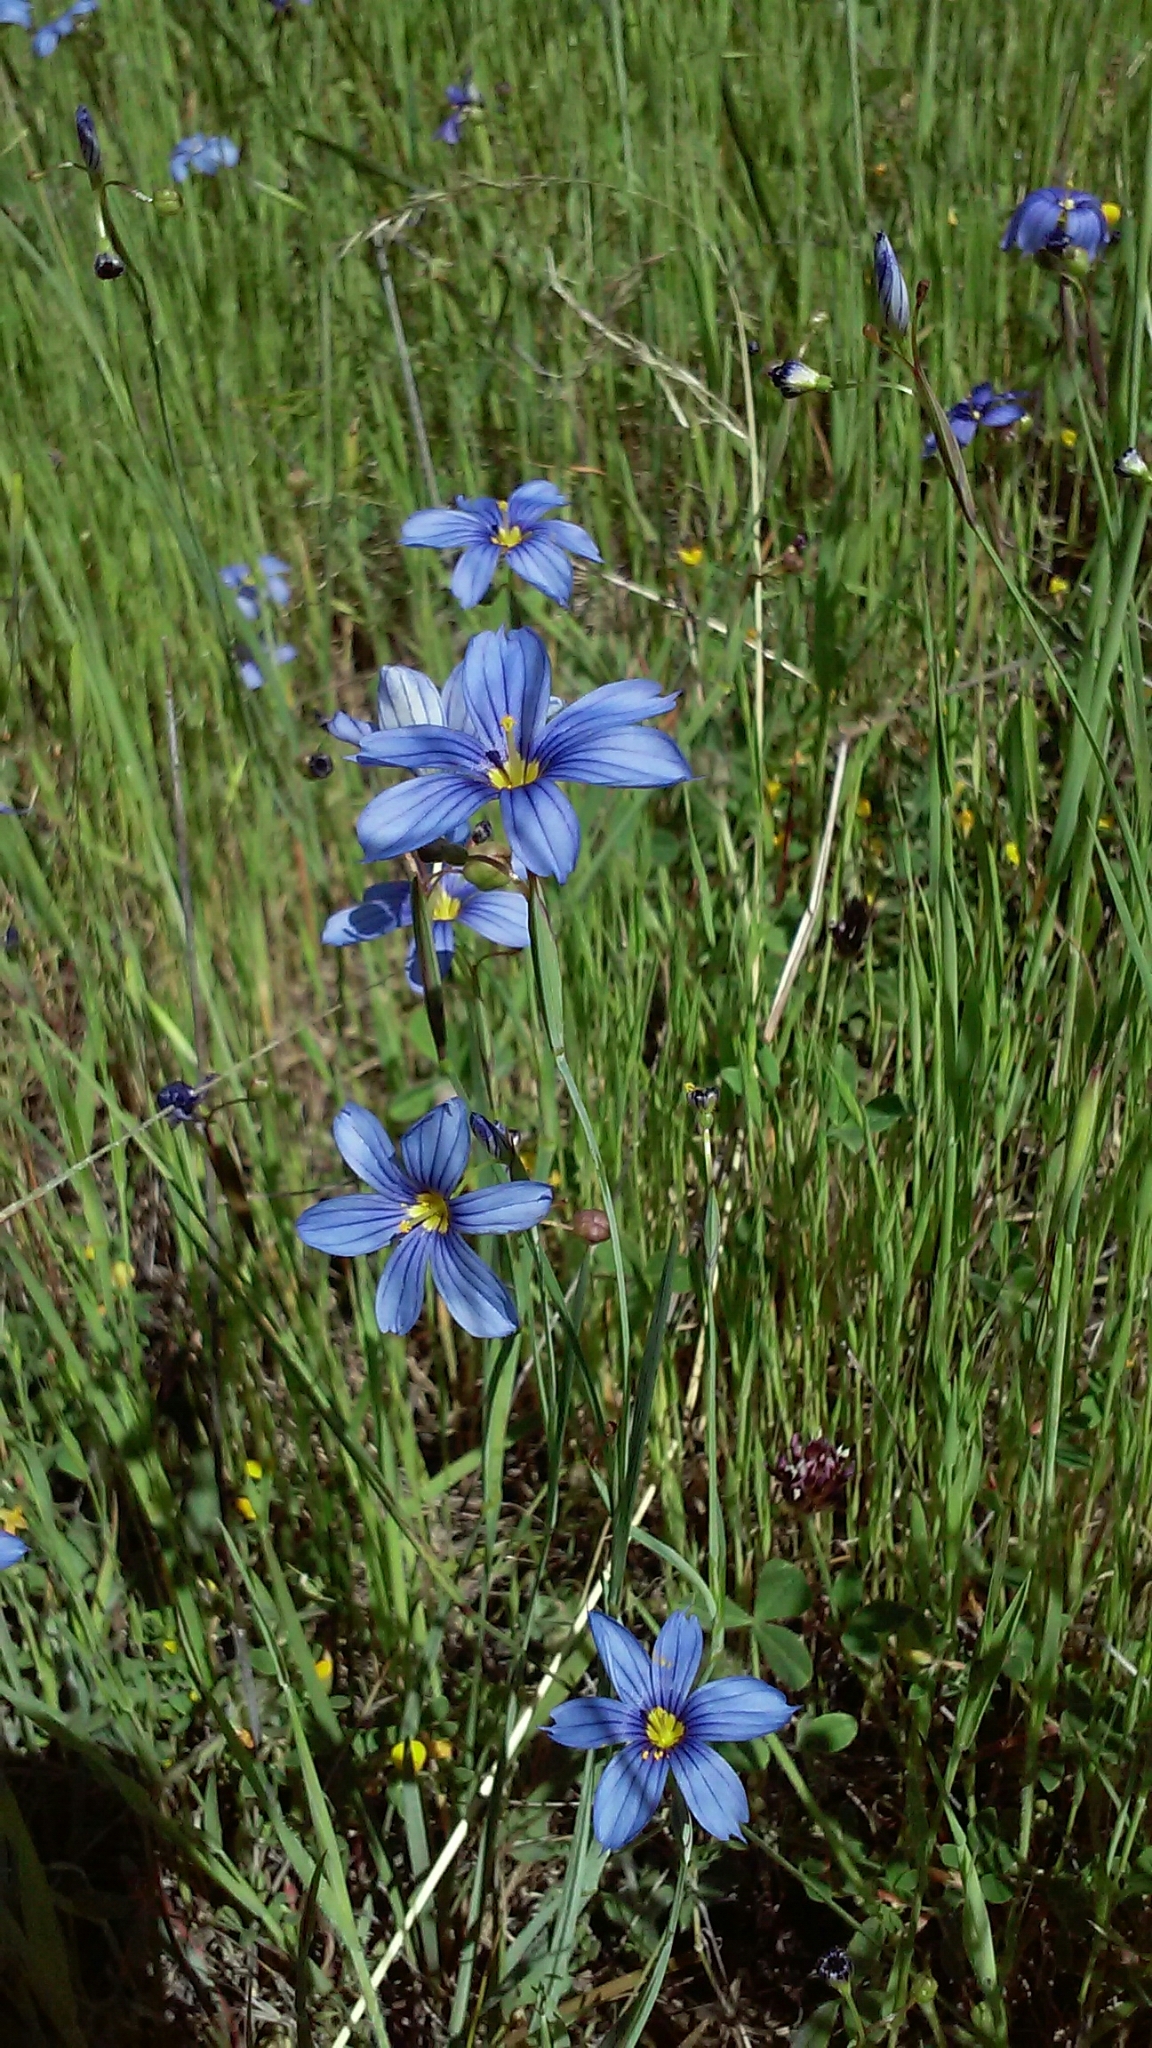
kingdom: Plantae
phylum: Tracheophyta
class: Liliopsida
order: Asparagales
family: Iridaceae
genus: Sisyrinchium
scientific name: Sisyrinchium bellum
